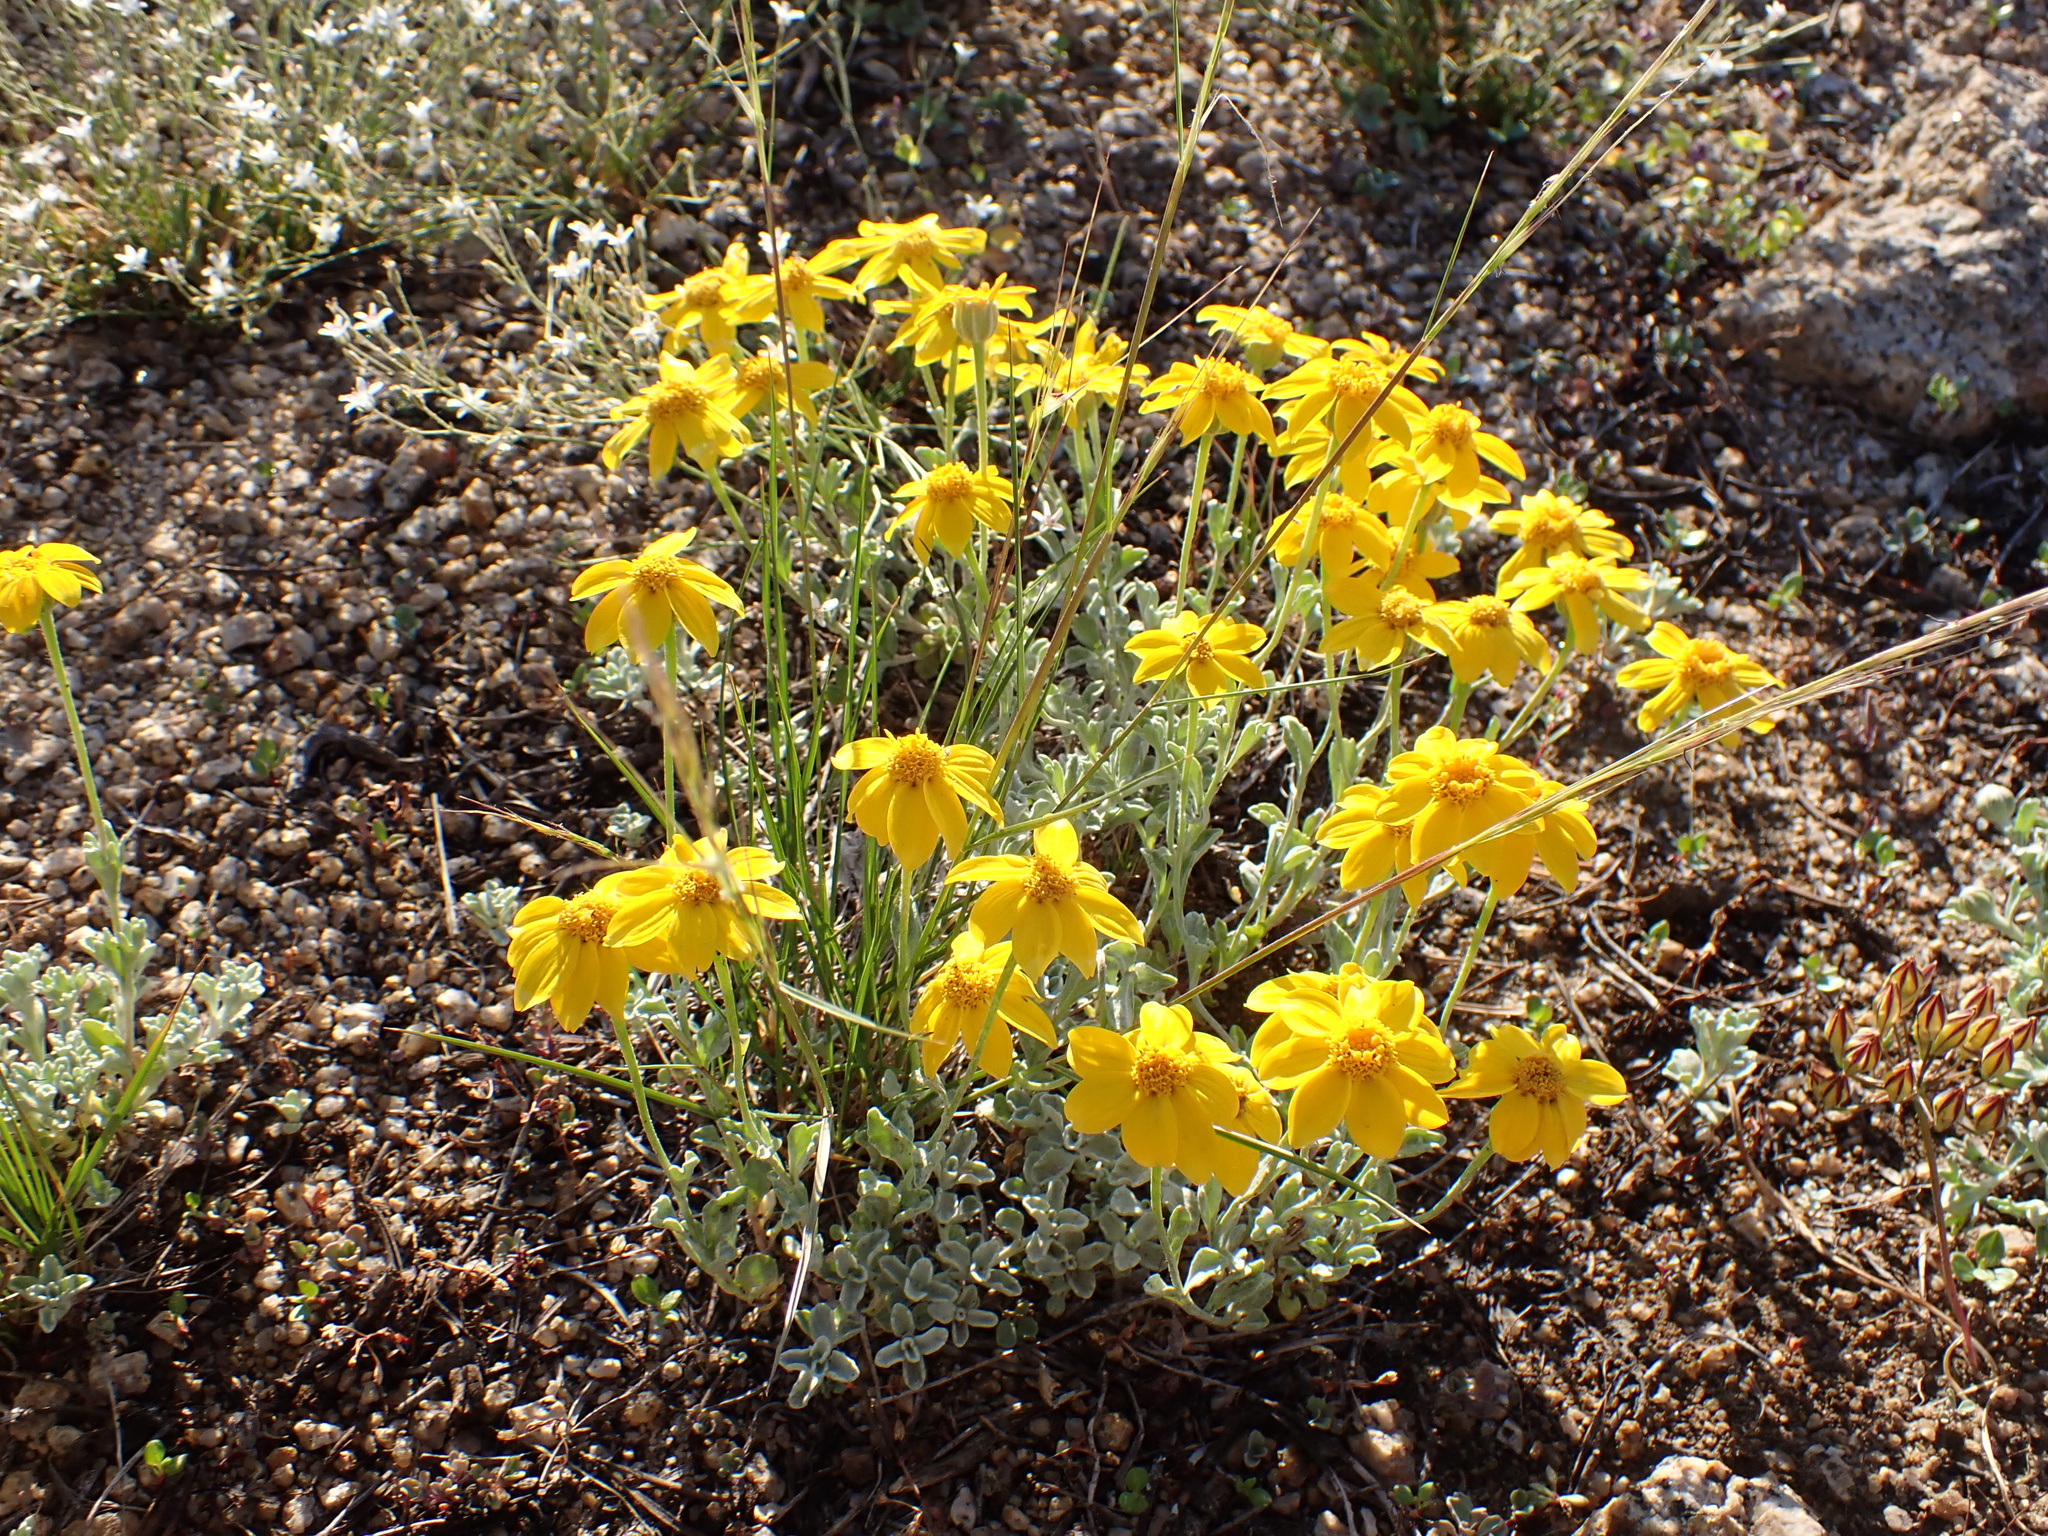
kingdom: Plantae
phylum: Tracheophyta
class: Magnoliopsida
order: Asterales
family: Asteraceae
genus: Eriophyllum
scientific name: Eriophyllum lanatum
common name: Common woolly-sunflower
